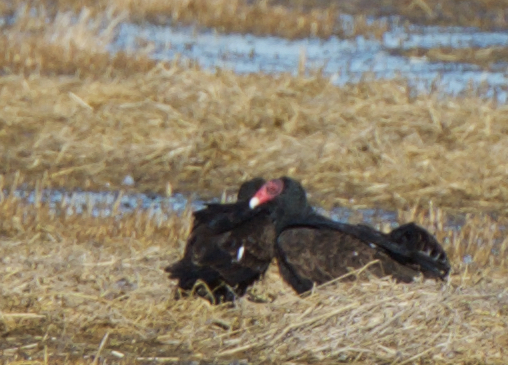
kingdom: Animalia
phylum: Chordata
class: Aves
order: Accipitriformes
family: Cathartidae
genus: Cathartes
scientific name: Cathartes aura
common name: Turkey vulture
